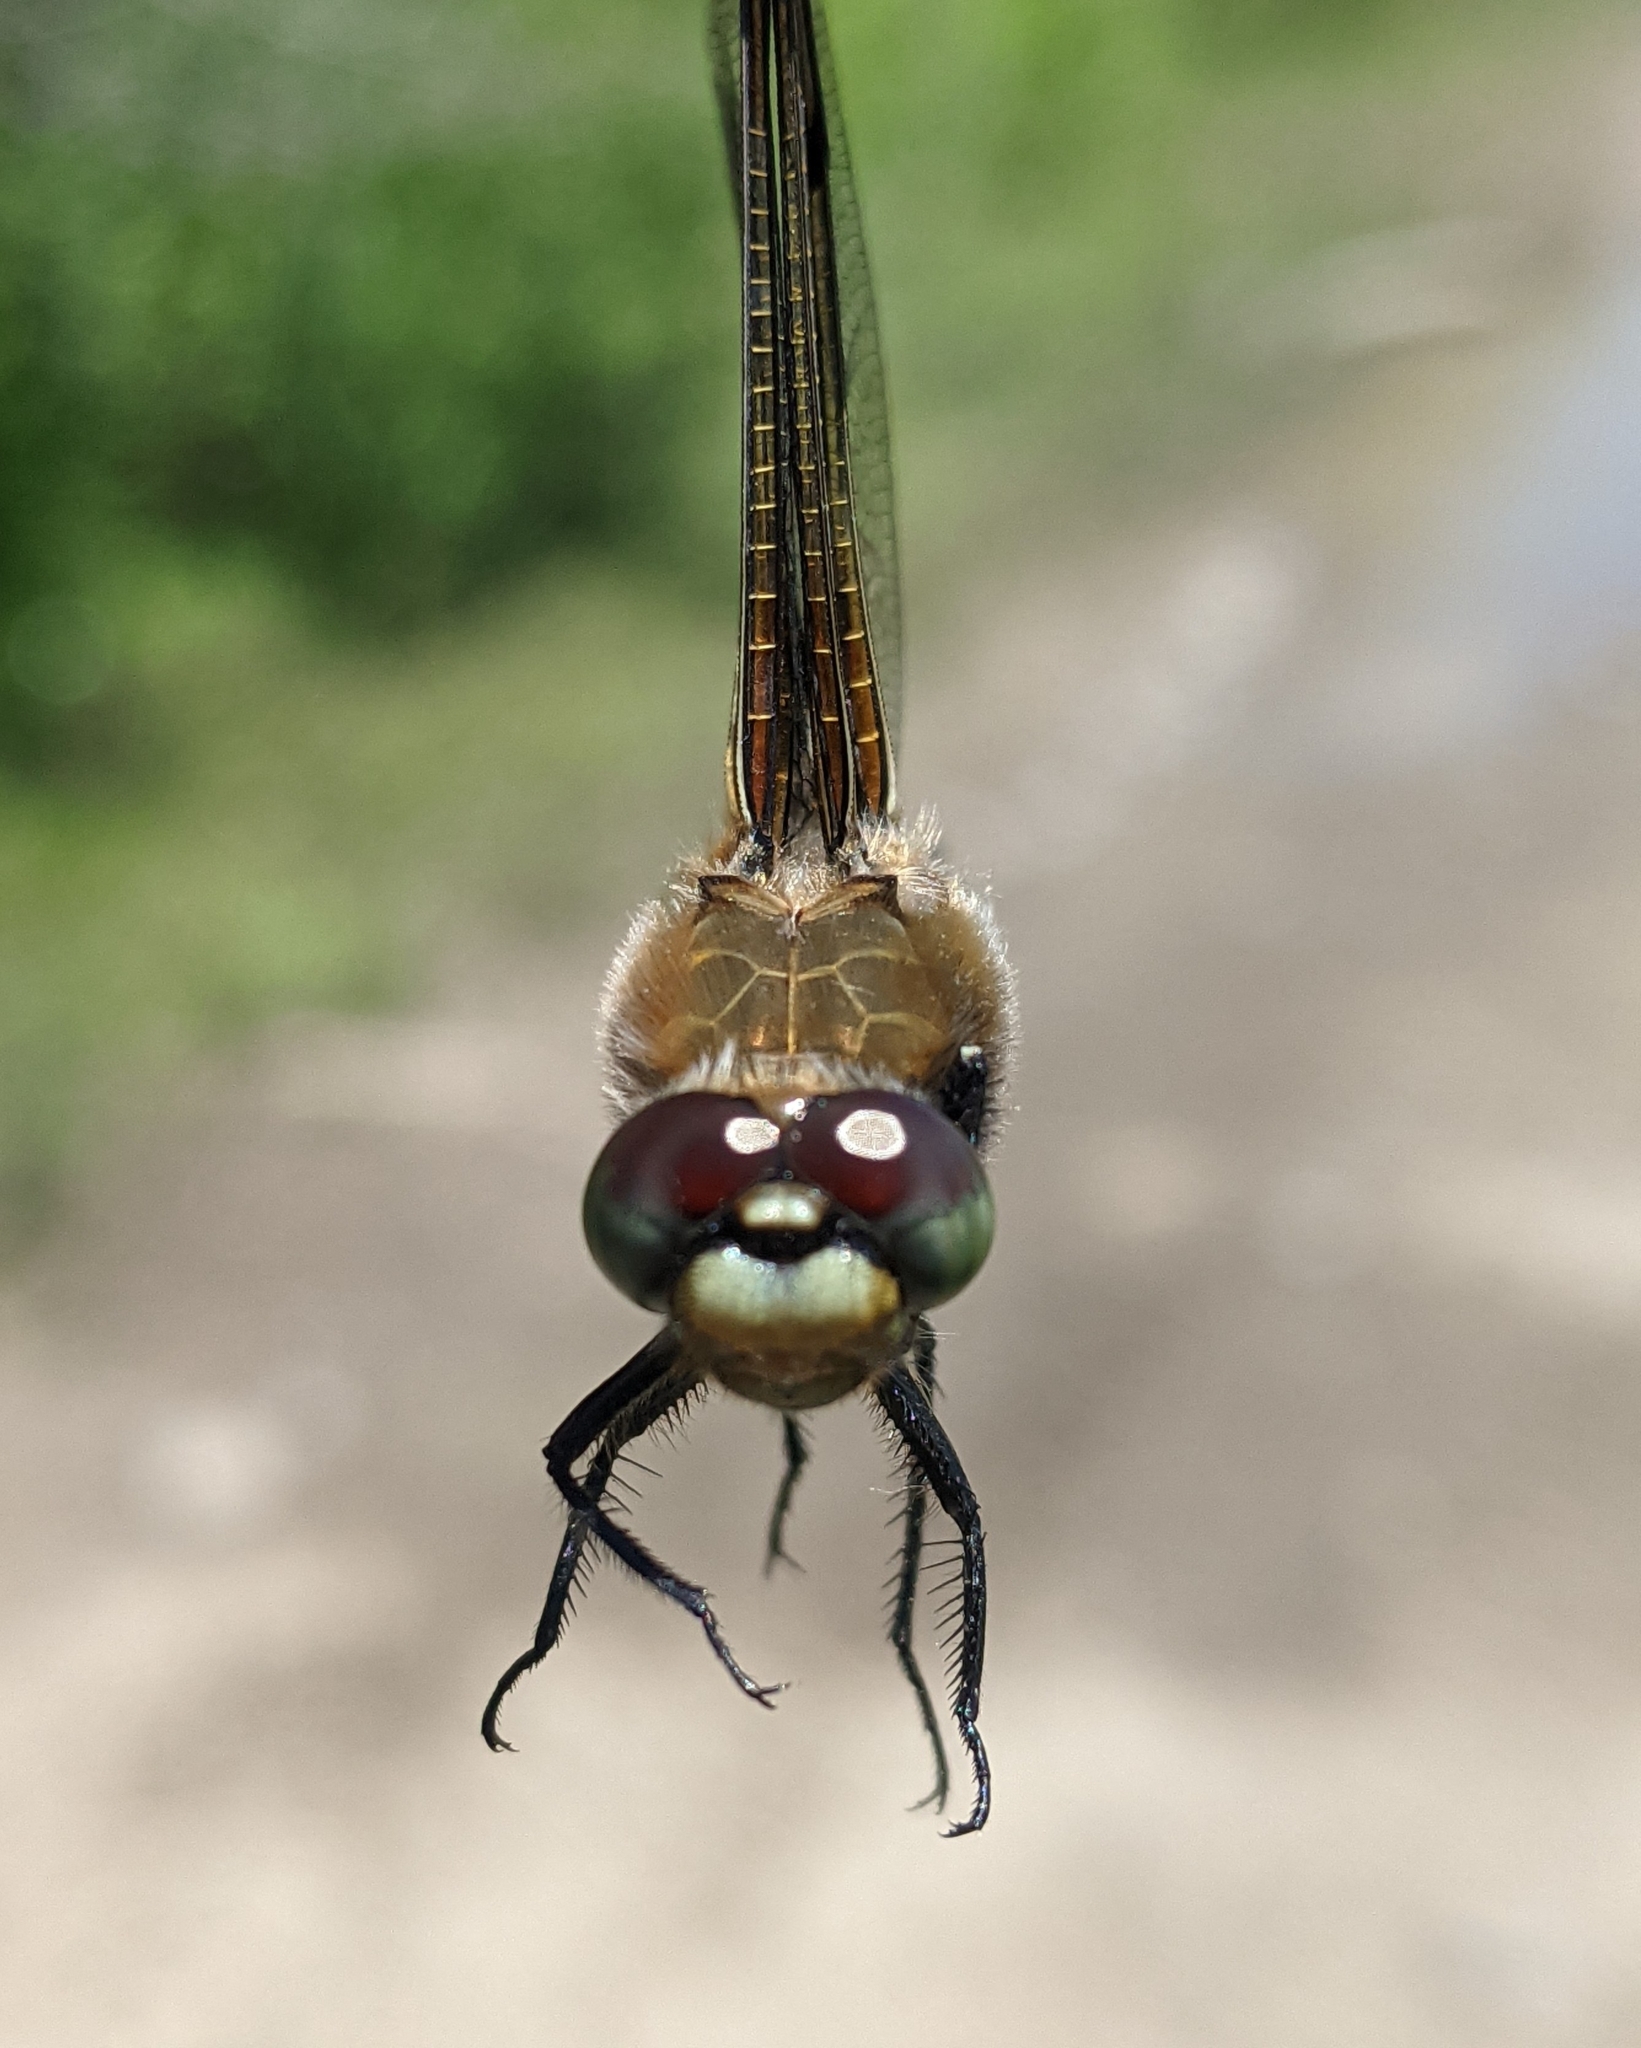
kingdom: Animalia
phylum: Arthropoda
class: Insecta
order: Odonata
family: Libellulidae
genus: Libellula
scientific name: Libellula quadrimaculata
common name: Four-spotted chaser
